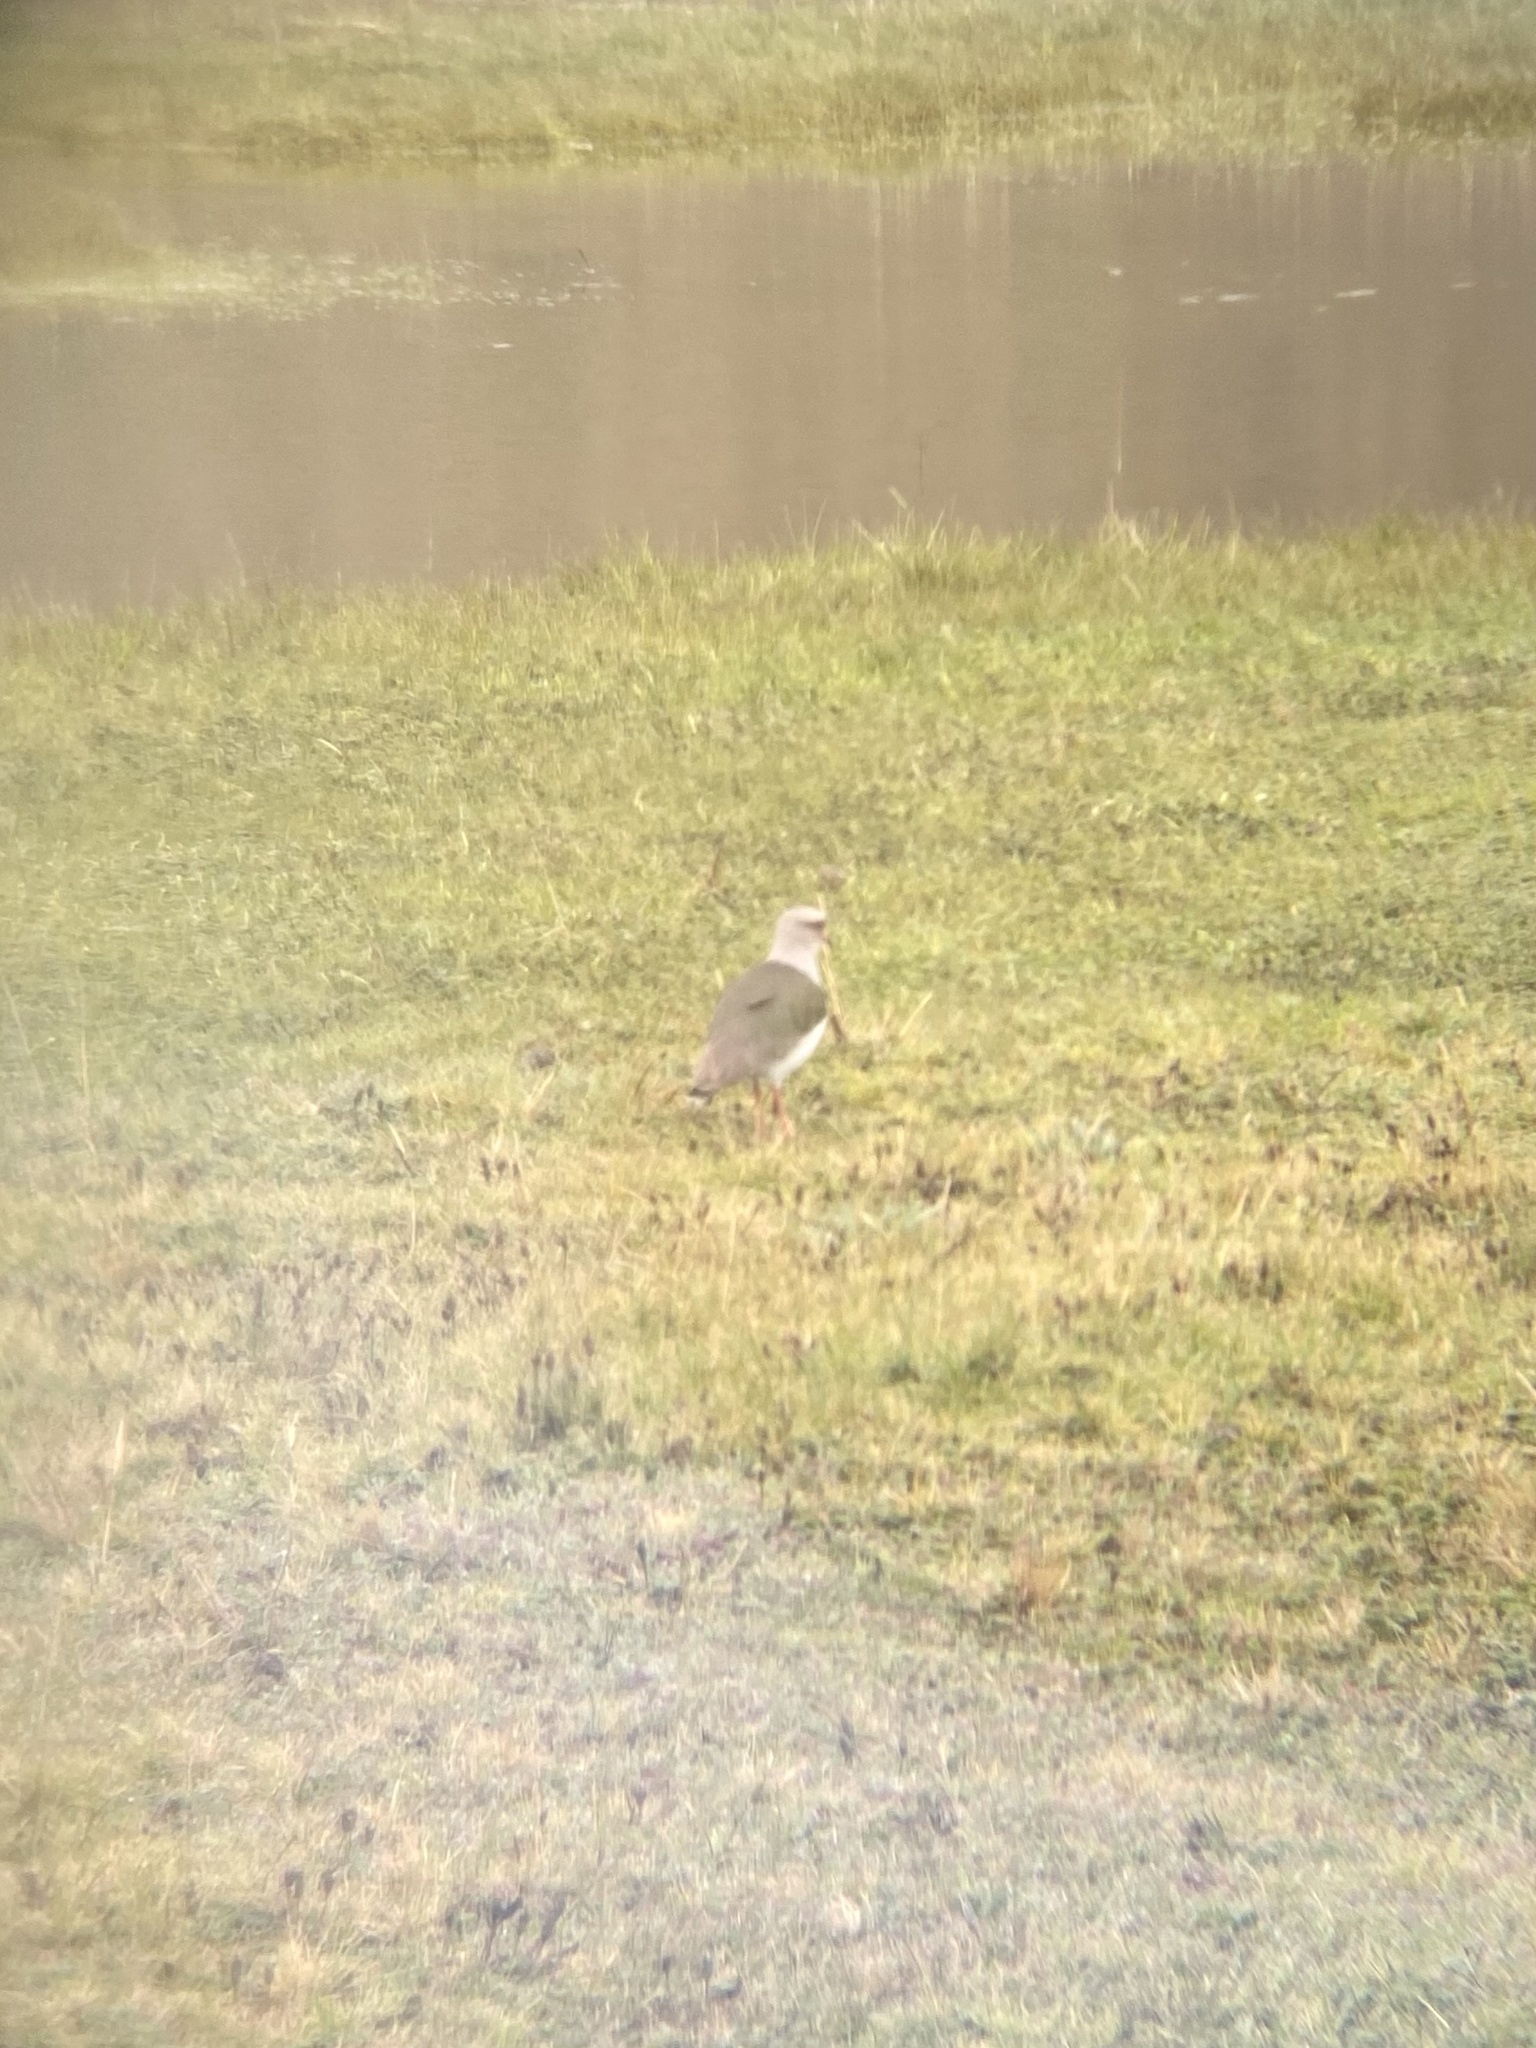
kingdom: Animalia
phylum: Chordata
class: Aves
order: Charadriiformes
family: Charadriidae
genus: Vanellus
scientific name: Vanellus resplendens
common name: Andean lapwing
